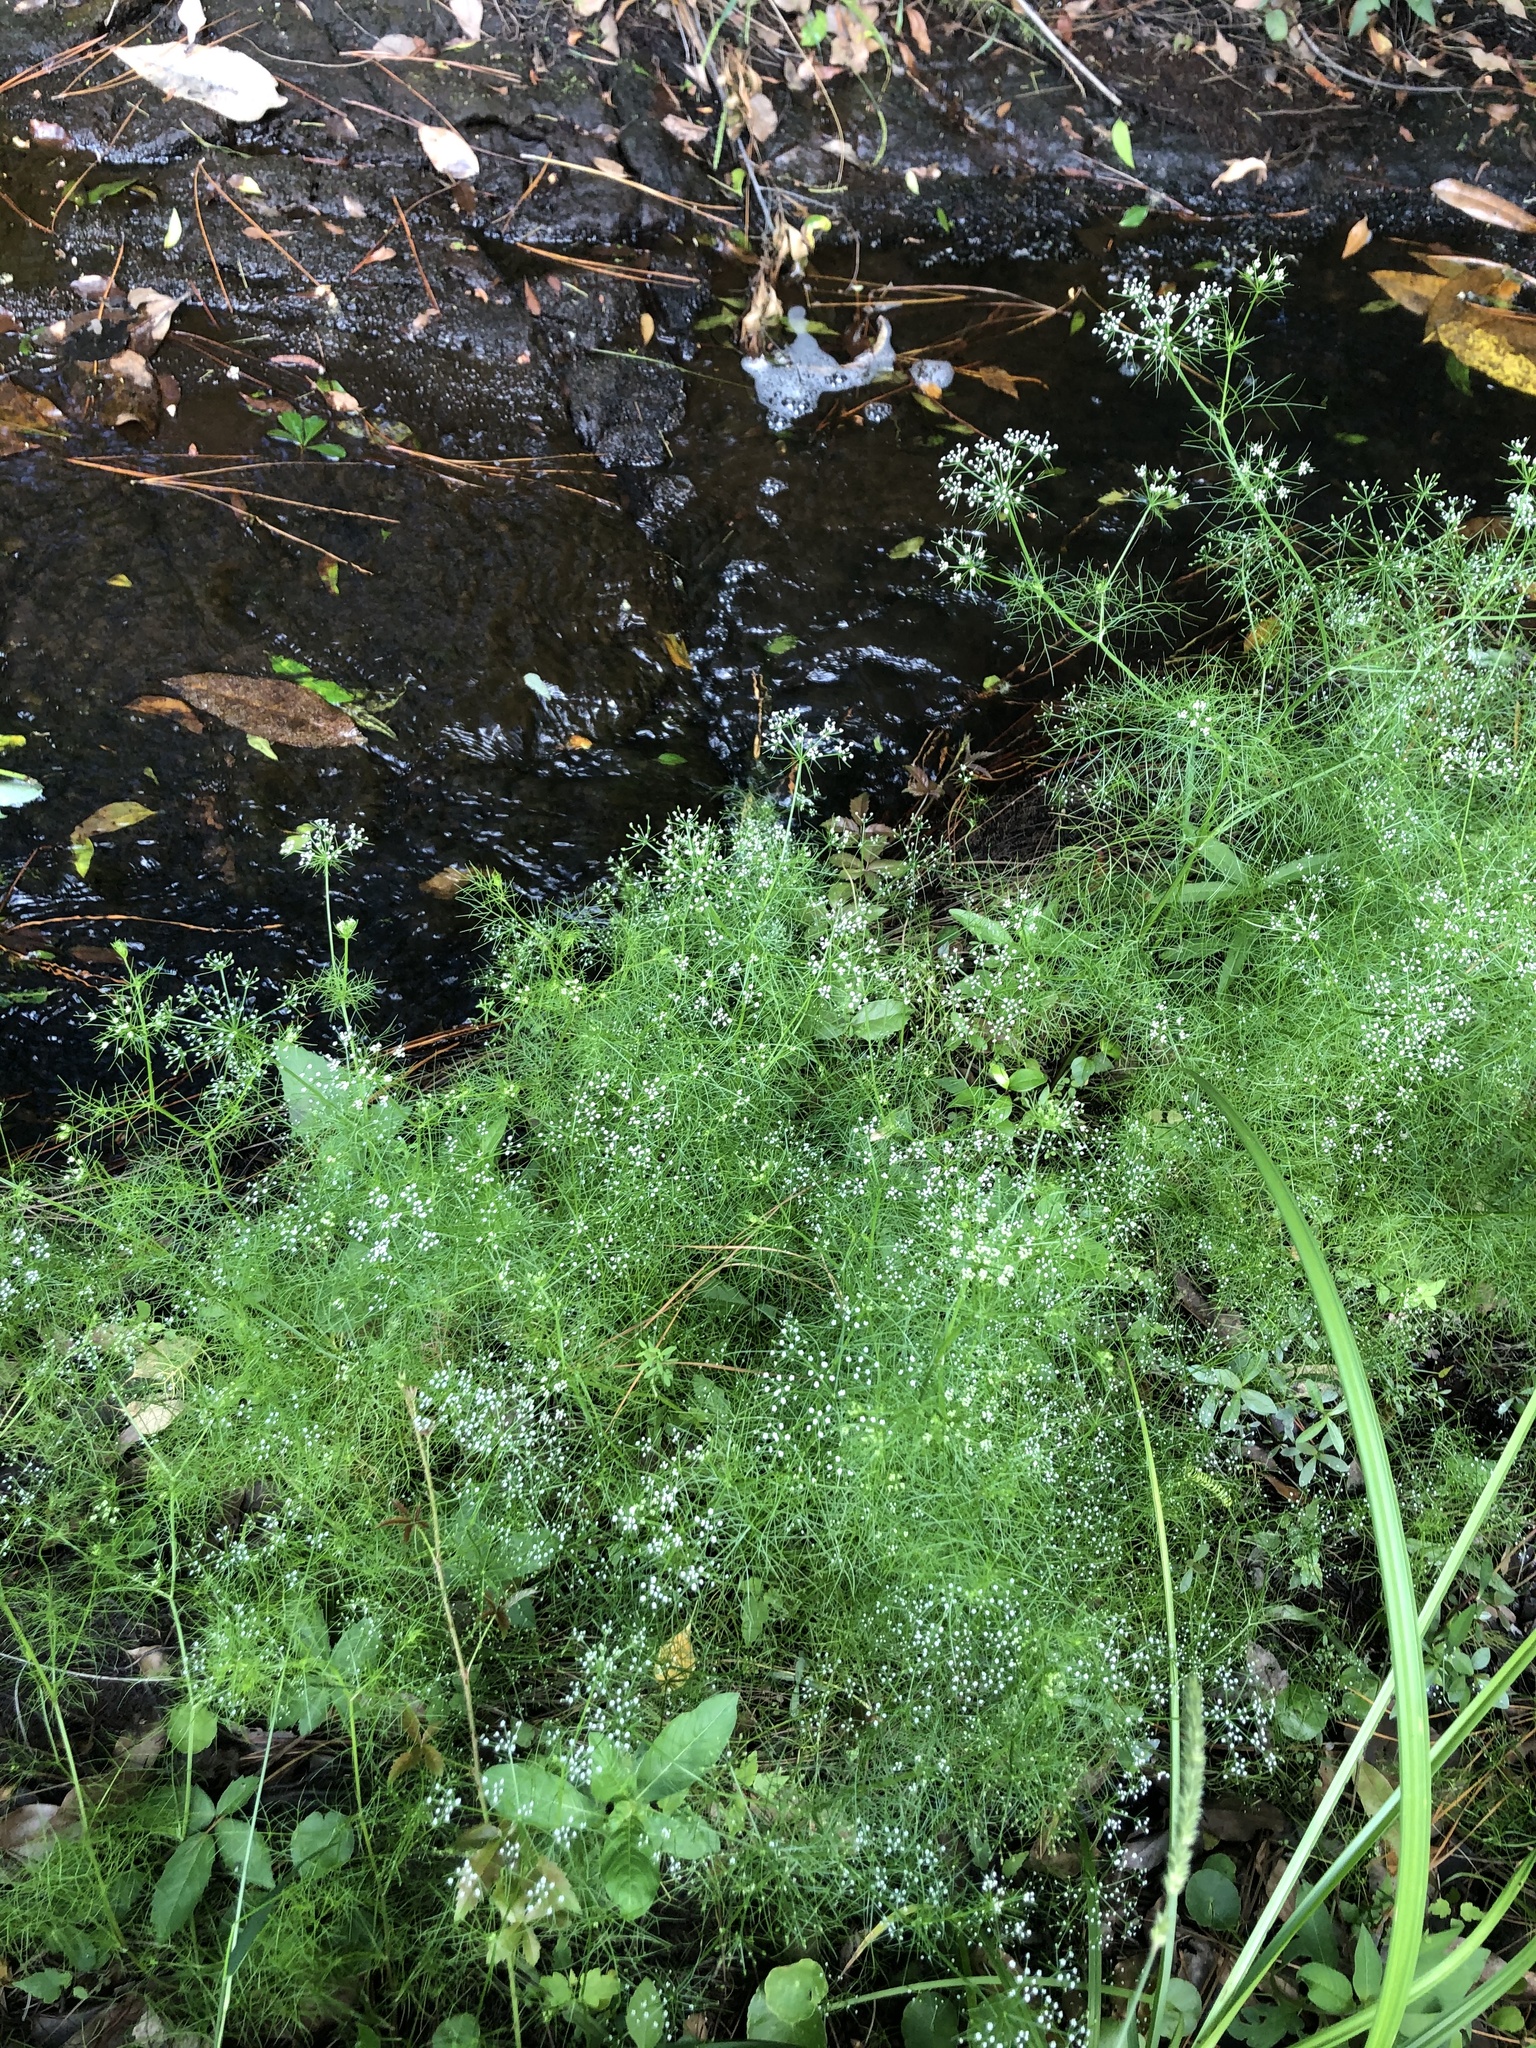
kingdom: Plantae
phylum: Tracheophyta
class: Magnoliopsida
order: Apiales
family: Apiaceae
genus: Ptilimnium
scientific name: Ptilimnium capillaceum
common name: Herbwilliam
